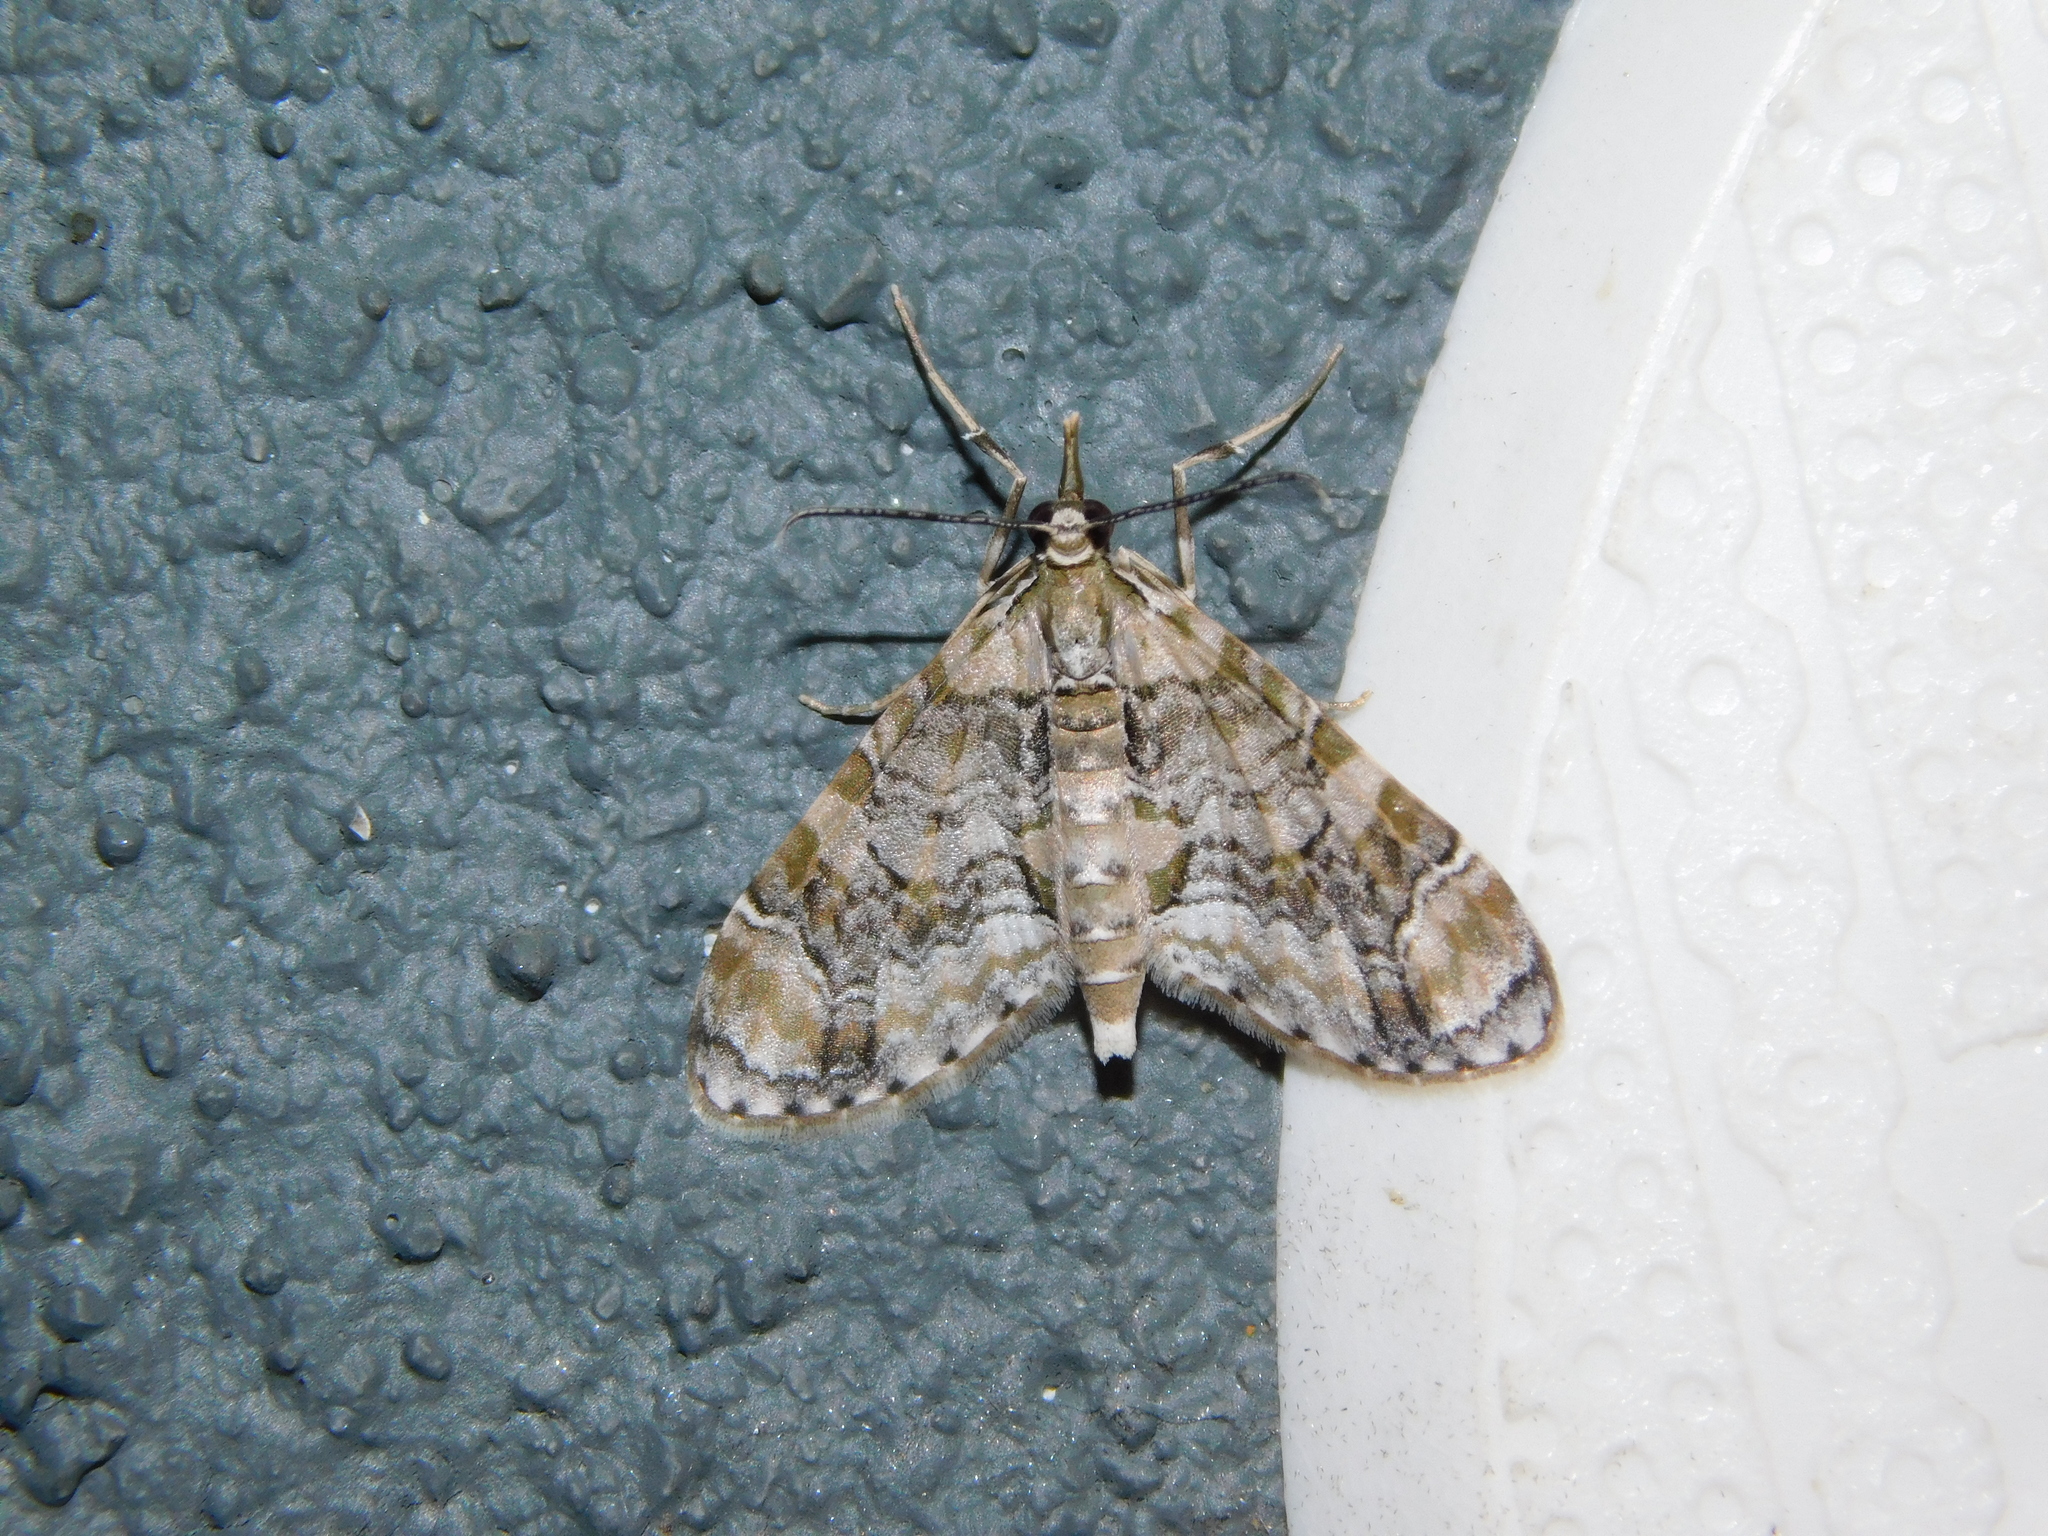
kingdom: Animalia
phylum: Arthropoda
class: Insecta
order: Lepidoptera
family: Geometridae
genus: Sauris
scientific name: Sauris eupitheciata
